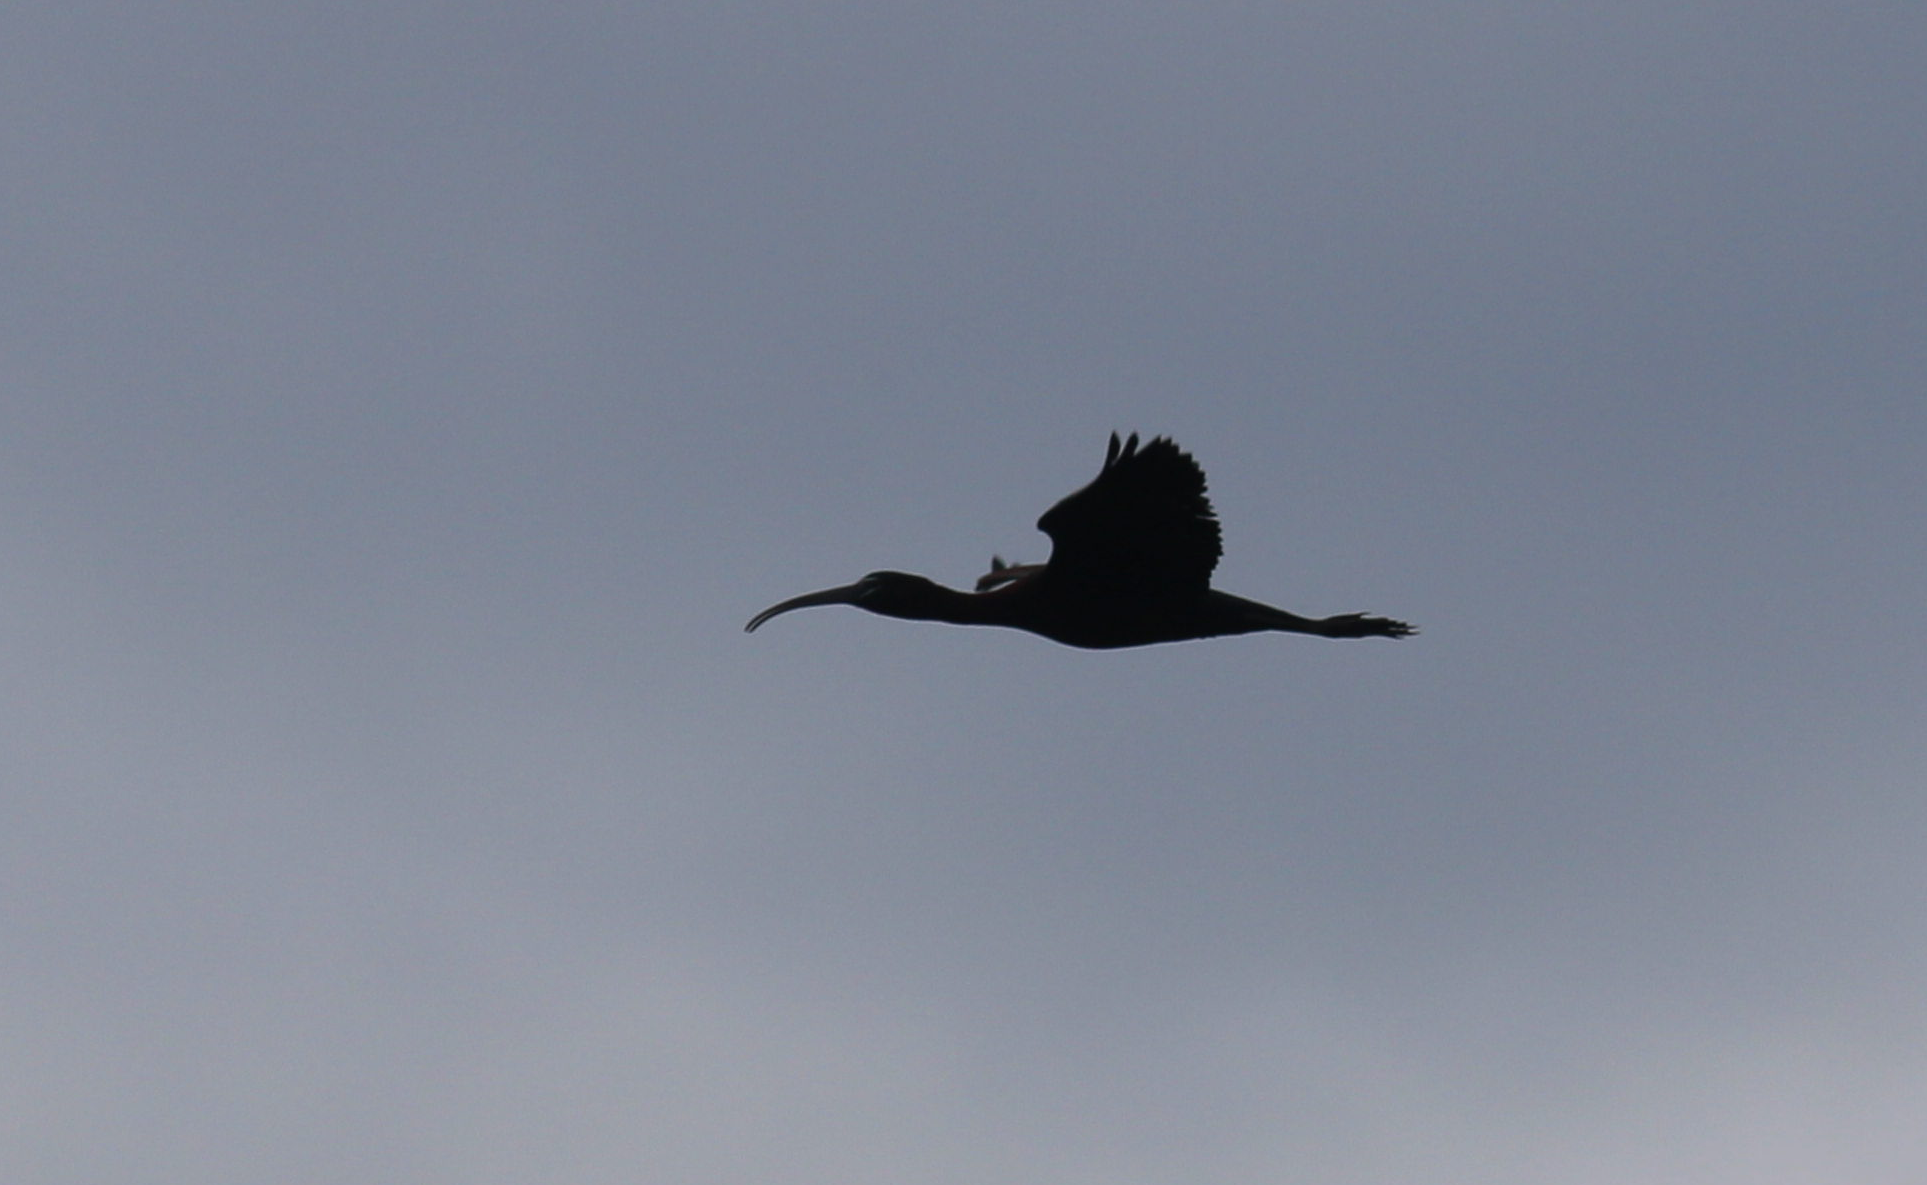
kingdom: Animalia
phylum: Chordata
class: Aves
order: Pelecaniformes
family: Threskiornithidae
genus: Plegadis
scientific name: Plegadis falcinellus
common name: Glossy ibis
